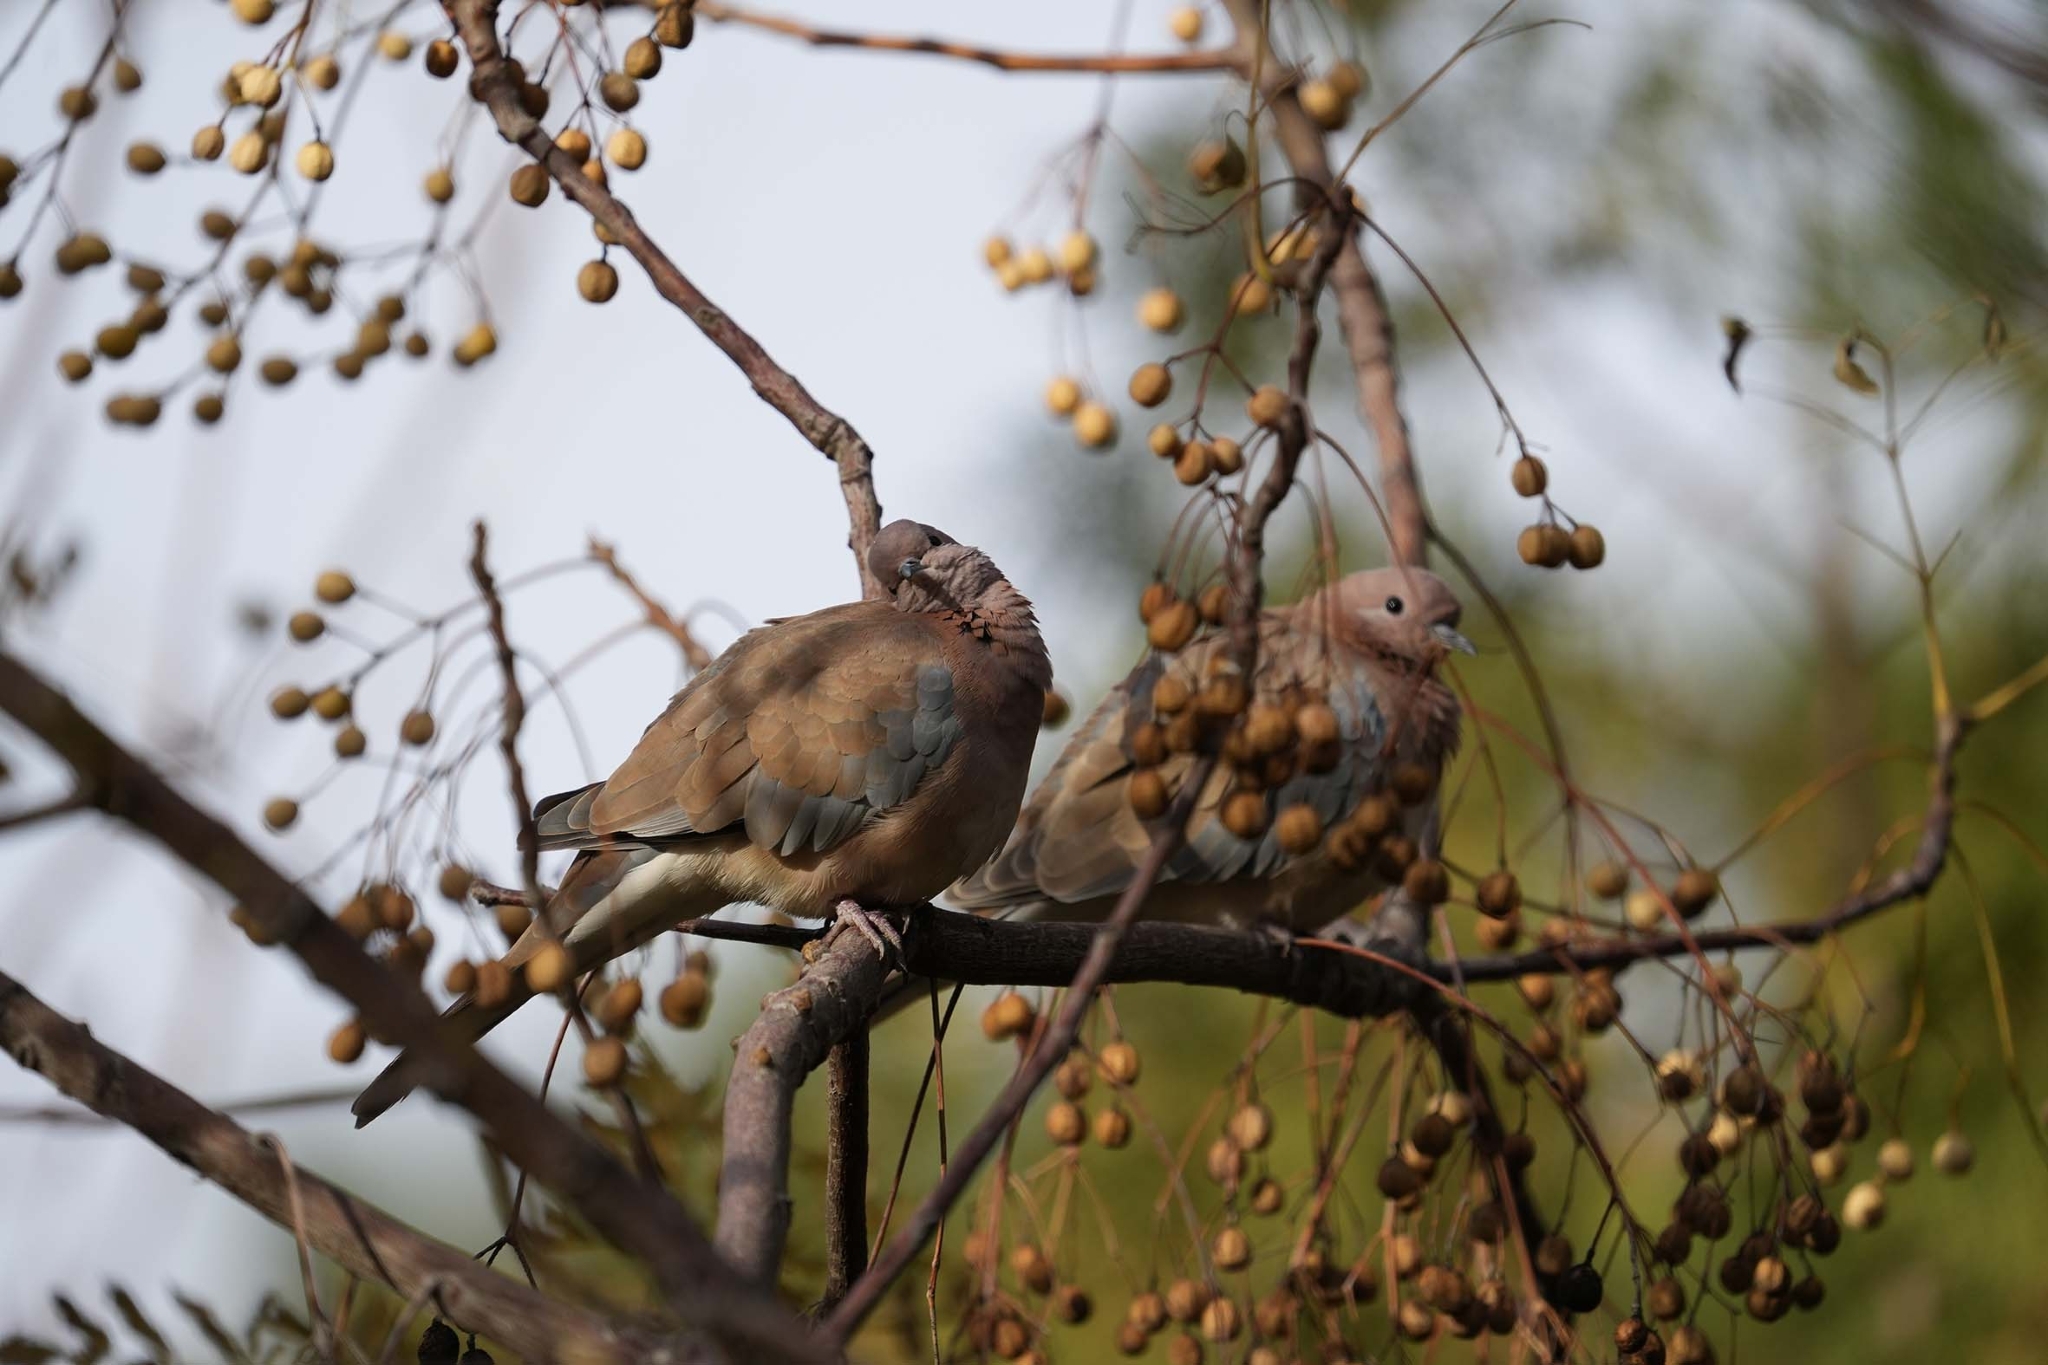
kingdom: Animalia
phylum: Chordata
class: Aves
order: Columbiformes
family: Columbidae
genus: Spilopelia
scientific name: Spilopelia senegalensis
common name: Laughing dove
